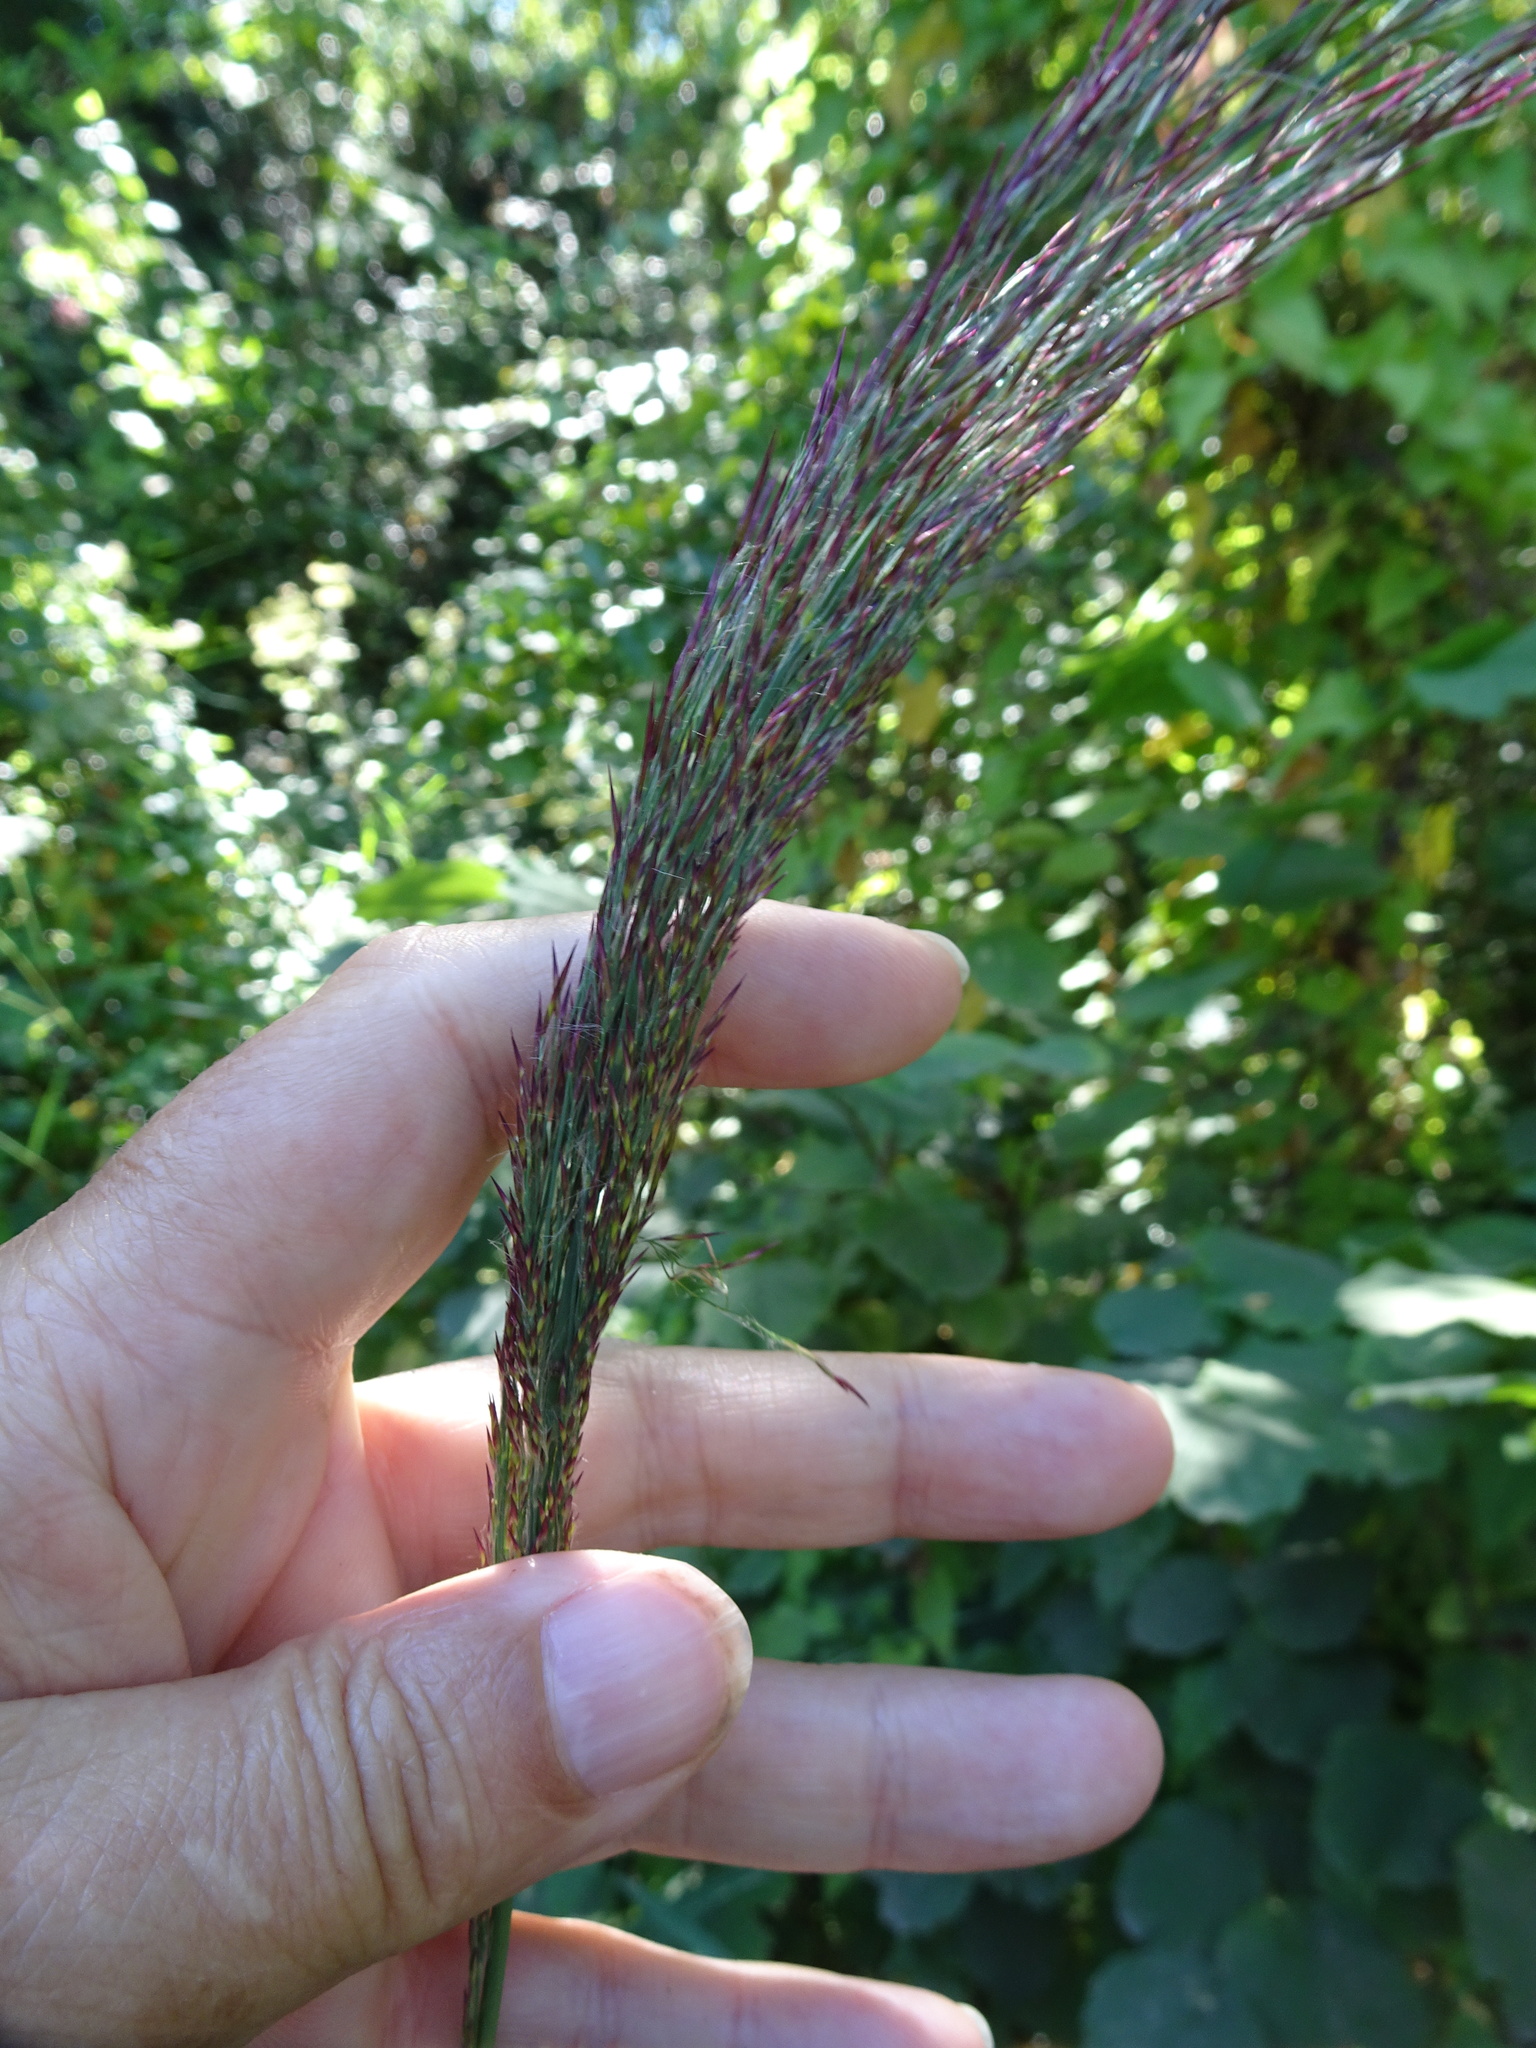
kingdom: Plantae
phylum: Tracheophyta
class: Liliopsida
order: Poales
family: Poaceae
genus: Phragmites
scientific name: Phragmites australis
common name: Common reed
